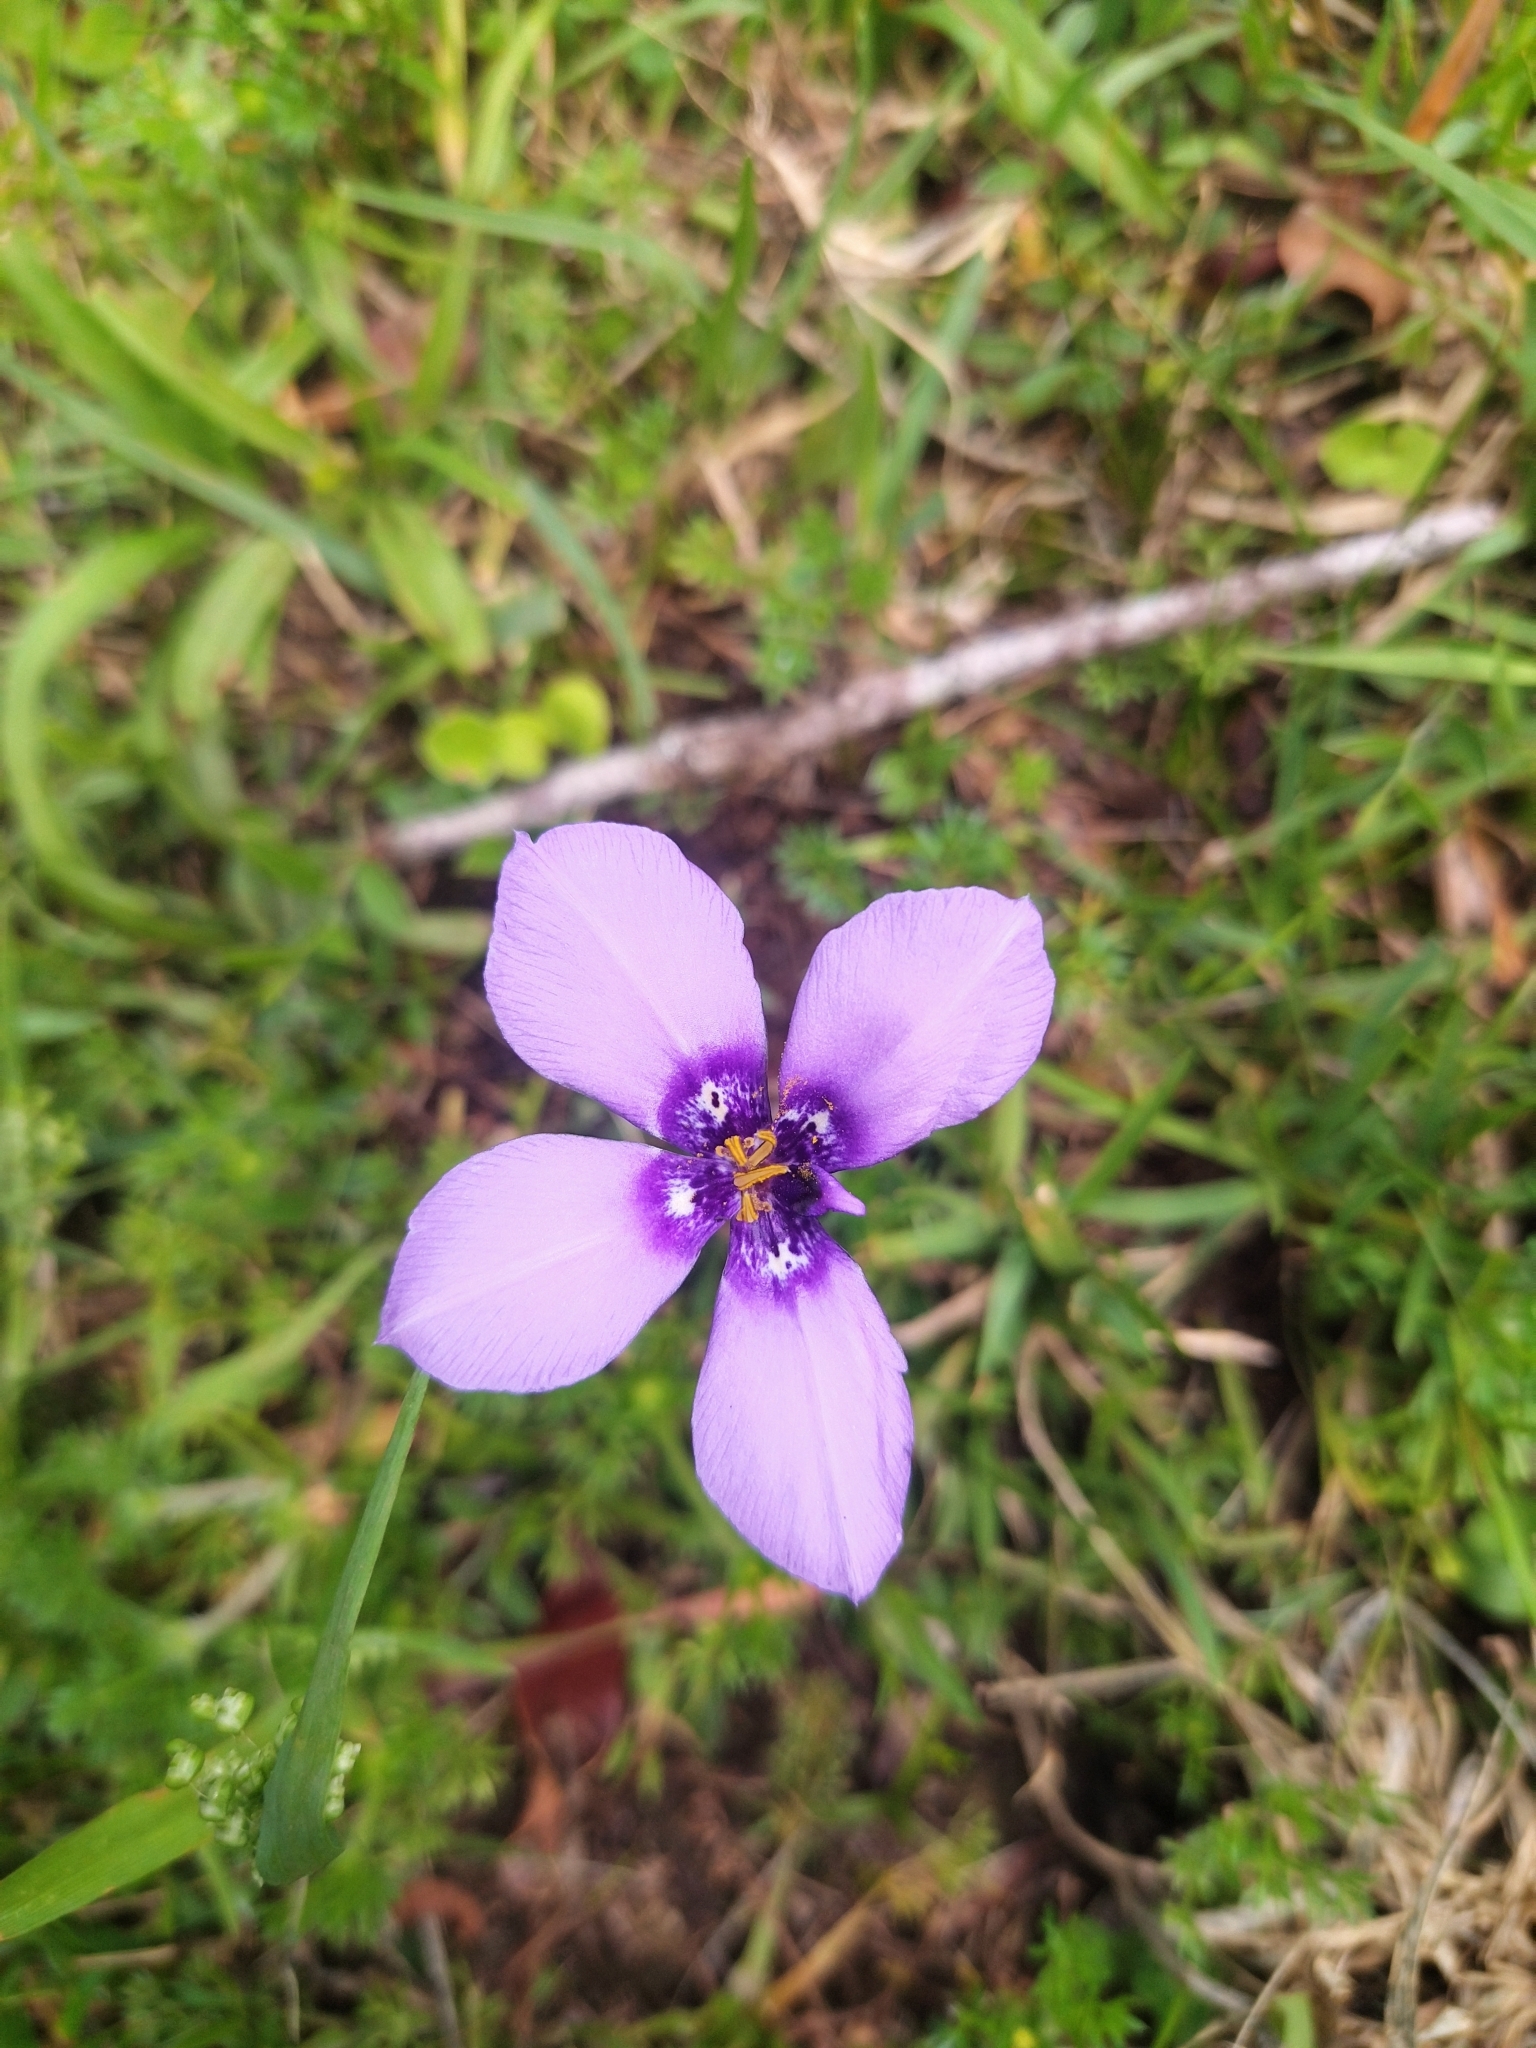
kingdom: Plantae
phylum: Tracheophyta
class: Liliopsida
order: Asparagales
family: Iridaceae
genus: Herbertia
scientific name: Herbertia lahue
